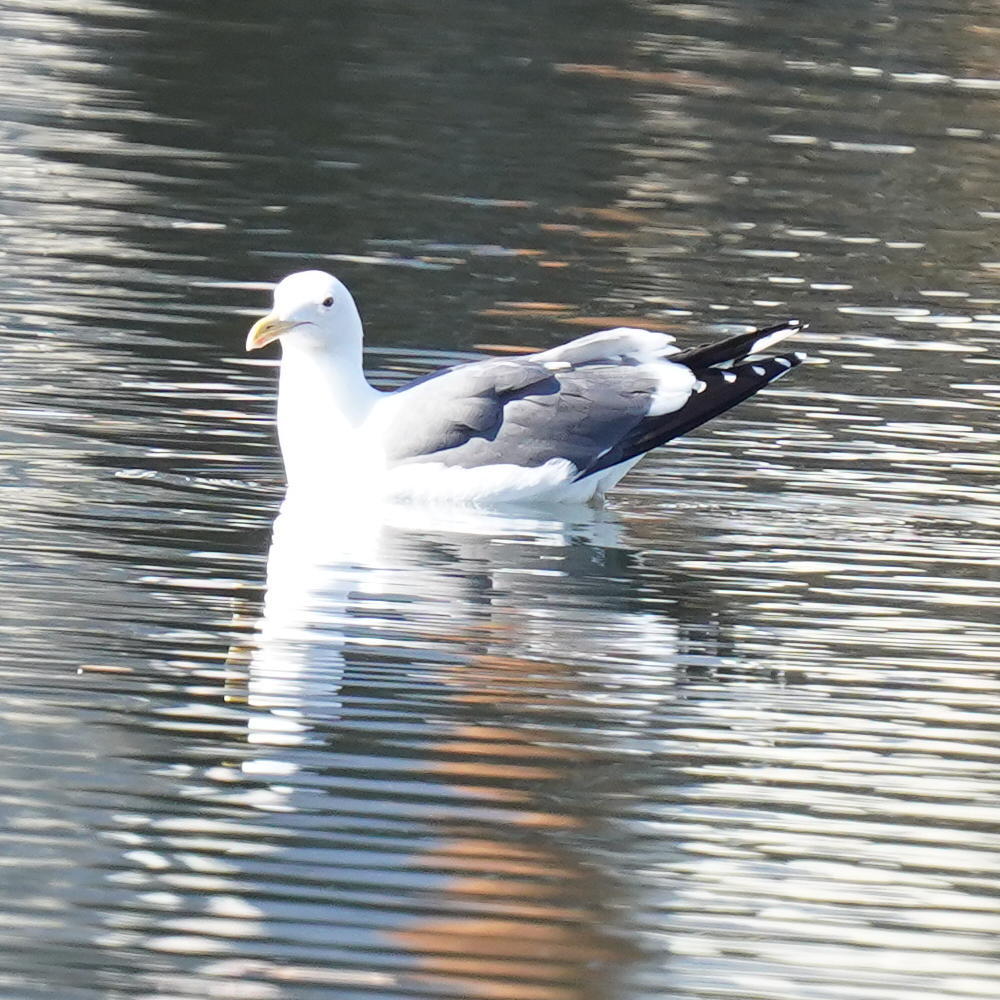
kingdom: Animalia
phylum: Chordata
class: Aves
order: Charadriiformes
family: Laridae
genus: Larus
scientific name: Larus occidentalis
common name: Western gull
